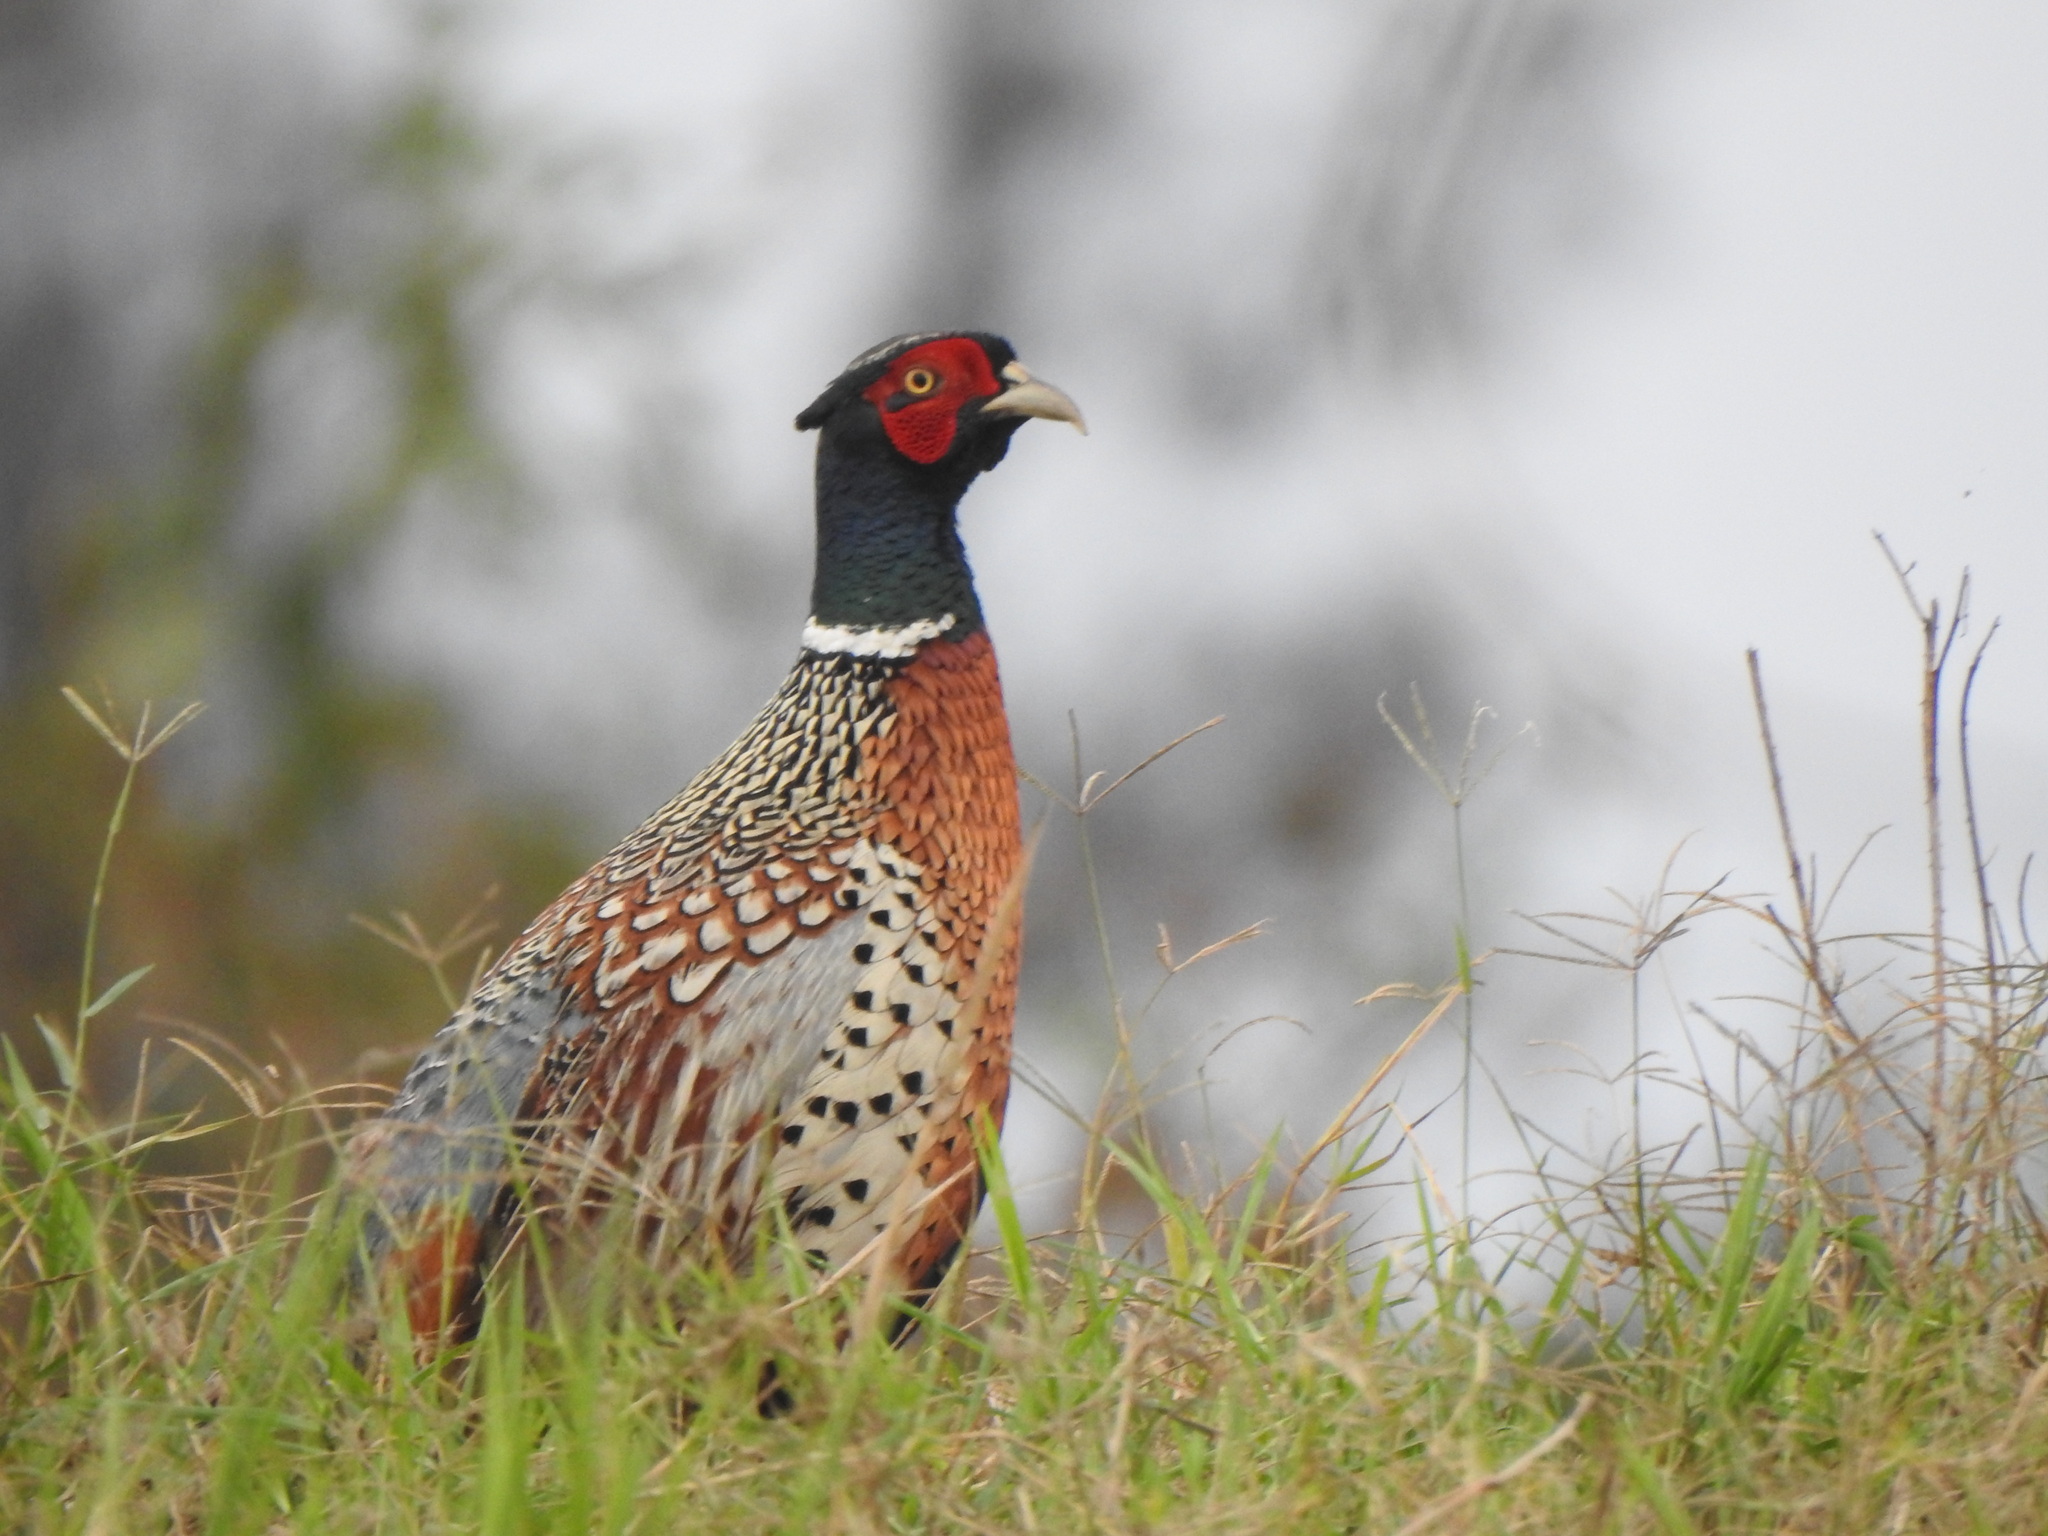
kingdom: Animalia
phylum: Chordata
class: Aves
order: Galliformes
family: Phasianidae
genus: Phasianus
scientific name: Phasianus colchicus
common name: Common pheasant
